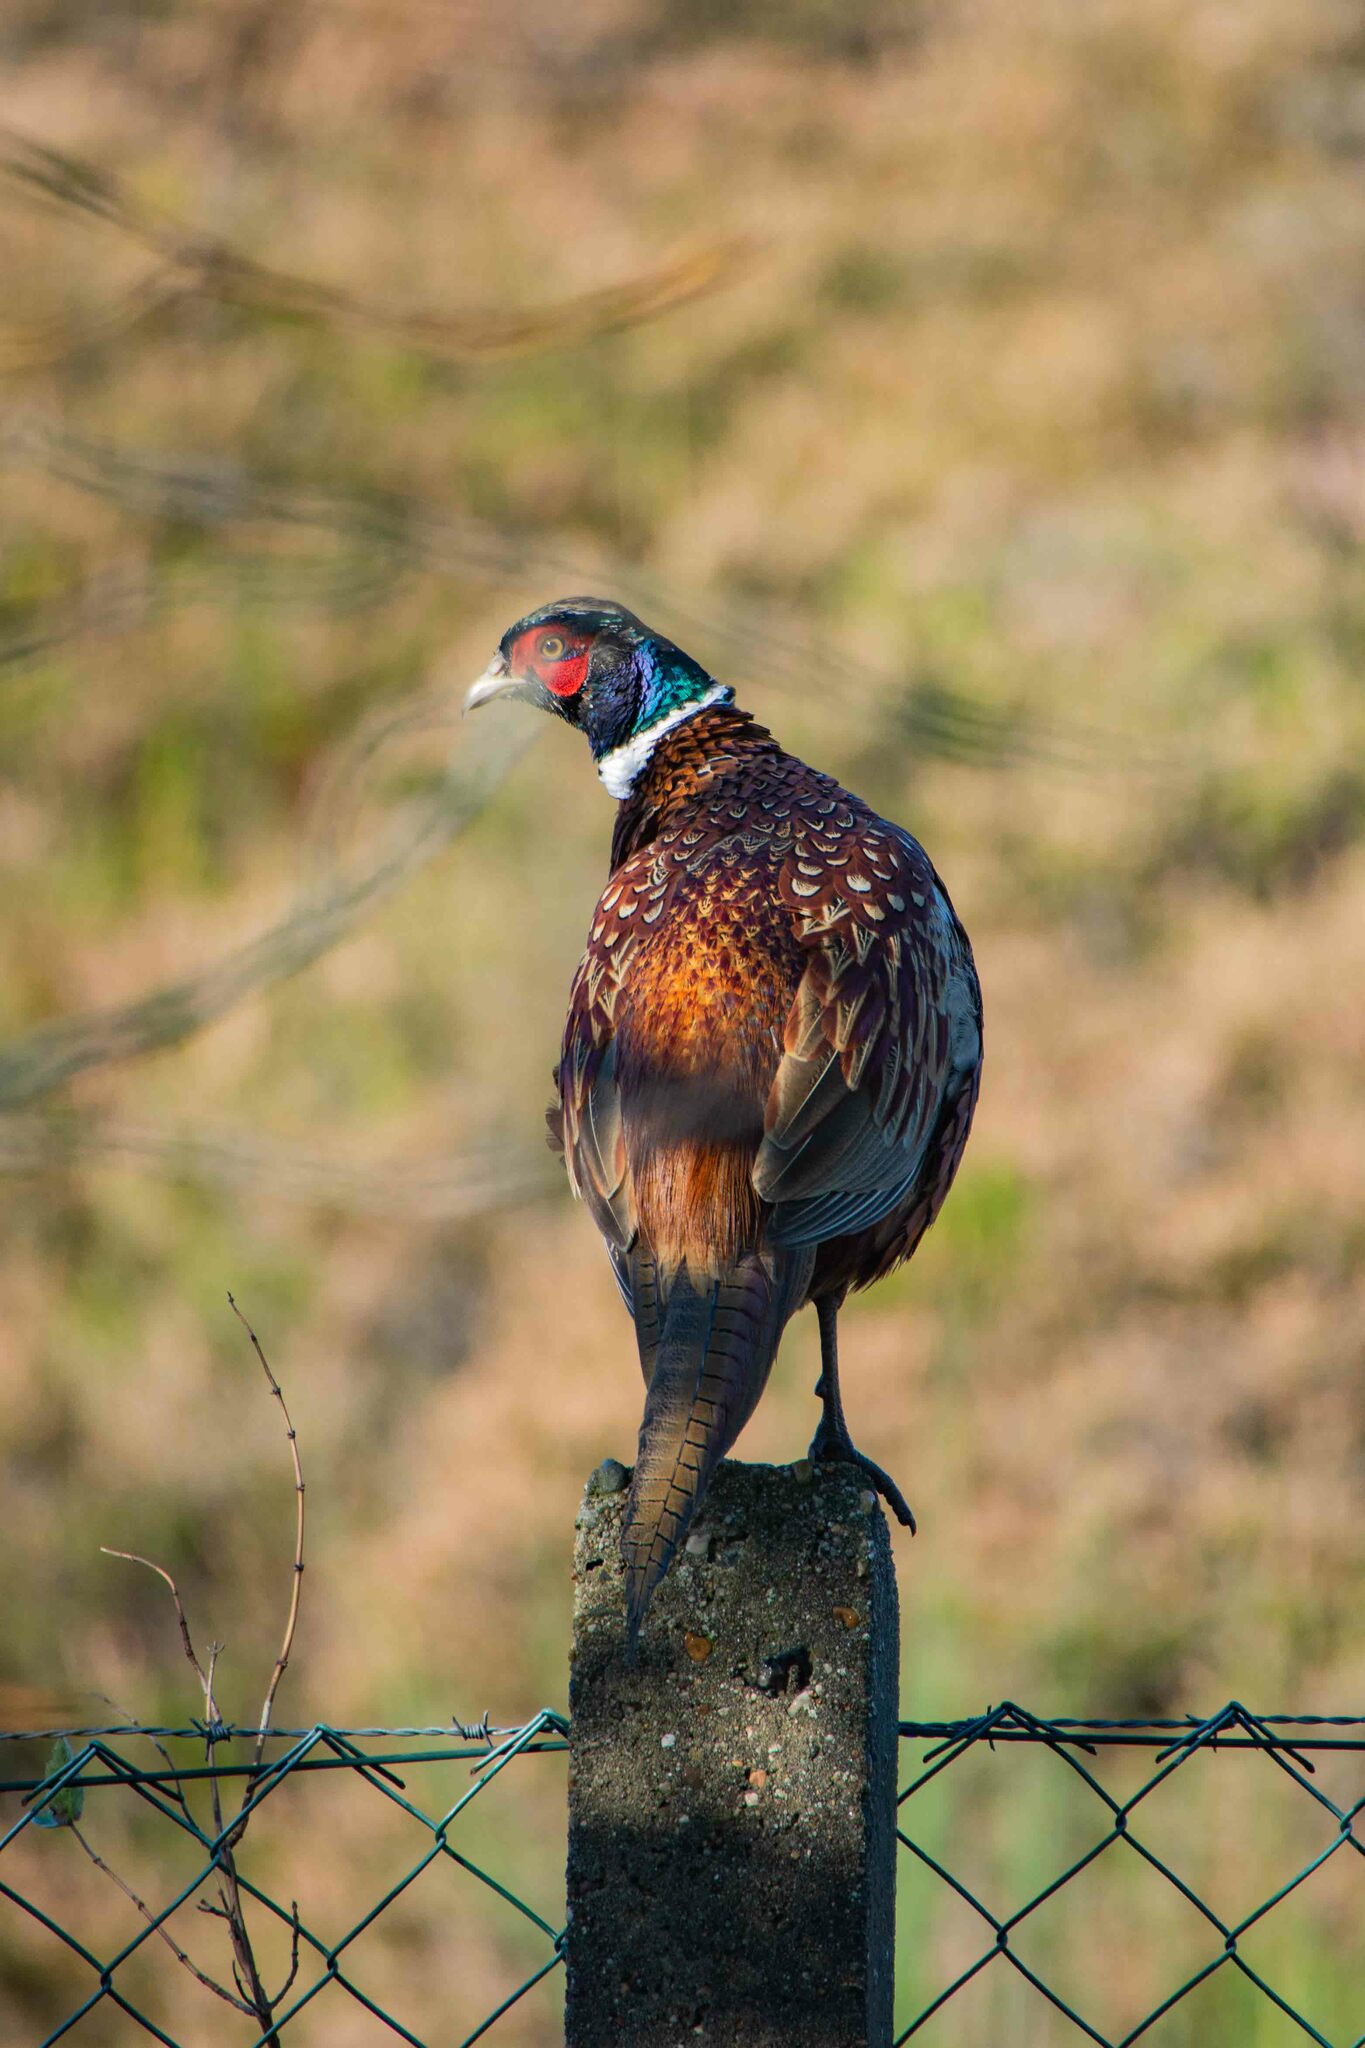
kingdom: Animalia
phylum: Chordata
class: Aves
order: Galliformes
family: Phasianidae
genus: Phasianus
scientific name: Phasianus colchicus
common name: Common pheasant
